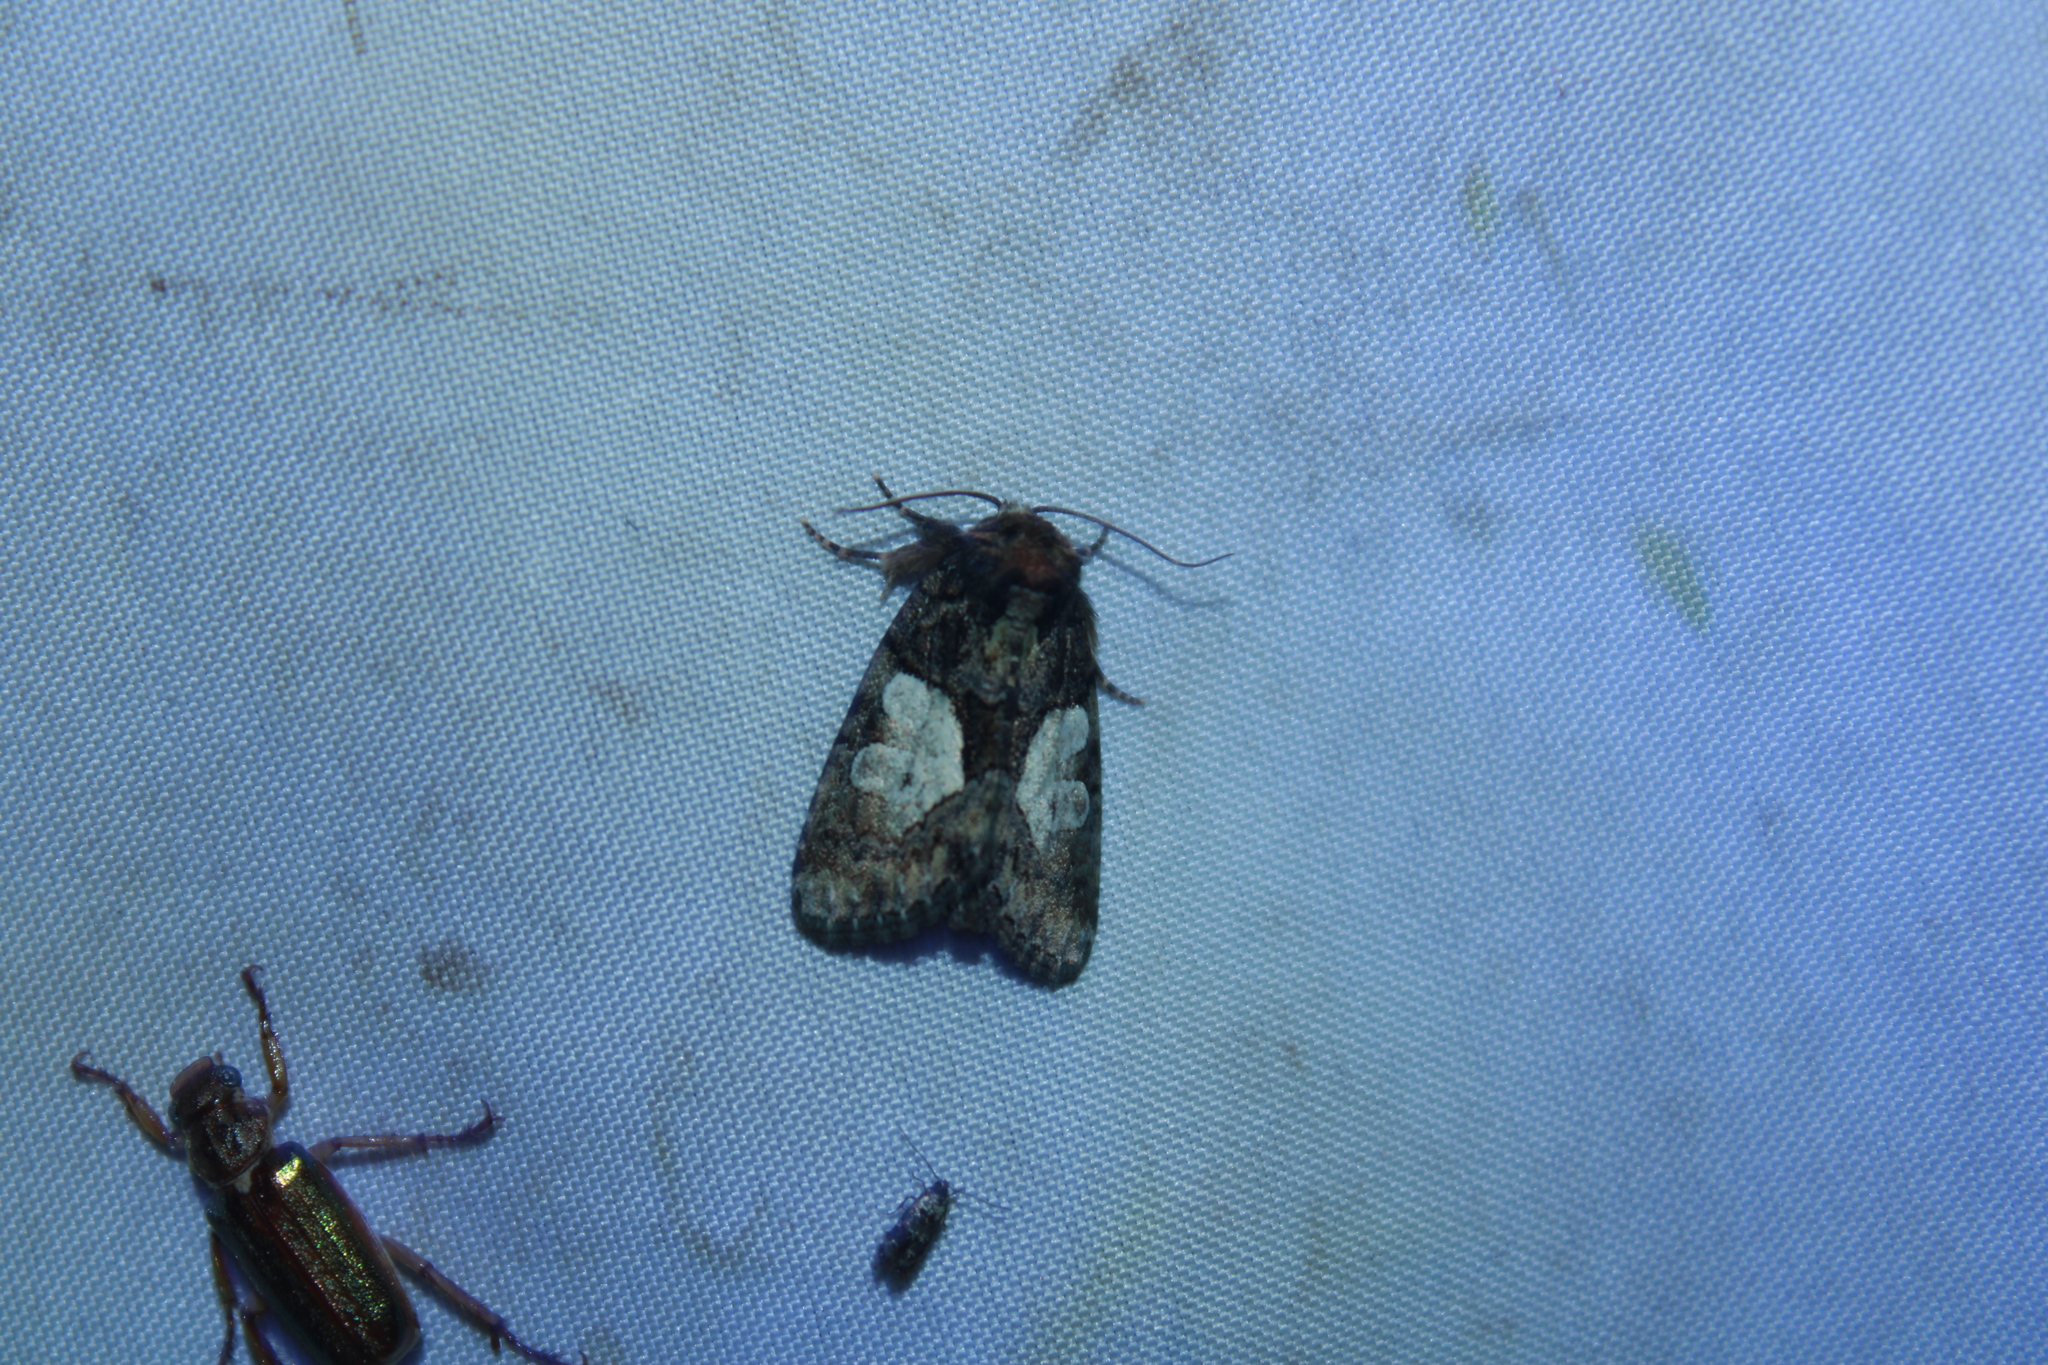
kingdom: Animalia
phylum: Arthropoda
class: Insecta
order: Lepidoptera
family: Noctuidae
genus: Chytonix
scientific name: Chytonix palliatricula
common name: Cloaked marvel
